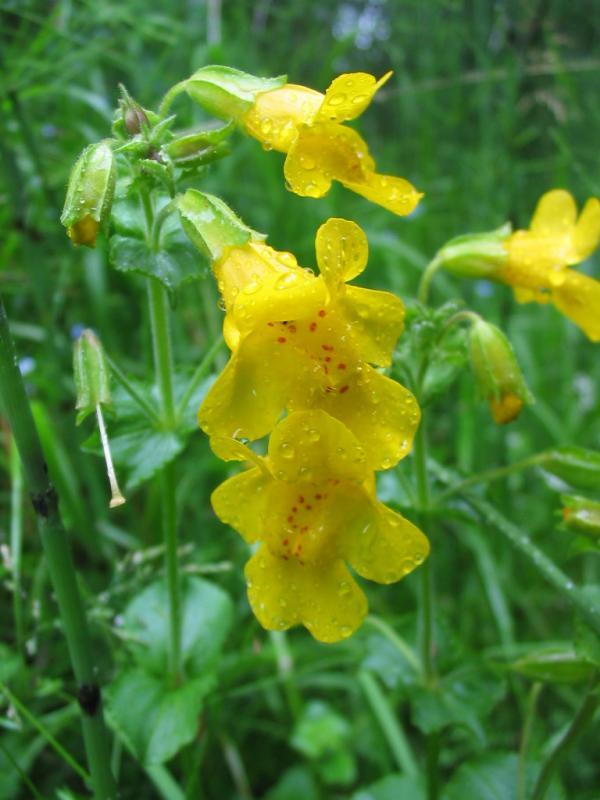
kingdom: Plantae
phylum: Tracheophyta
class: Magnoliopsida
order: Lamiales
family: Phrymaceae
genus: Erythranthe
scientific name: Erythranthe guttata
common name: Monkeyflower
